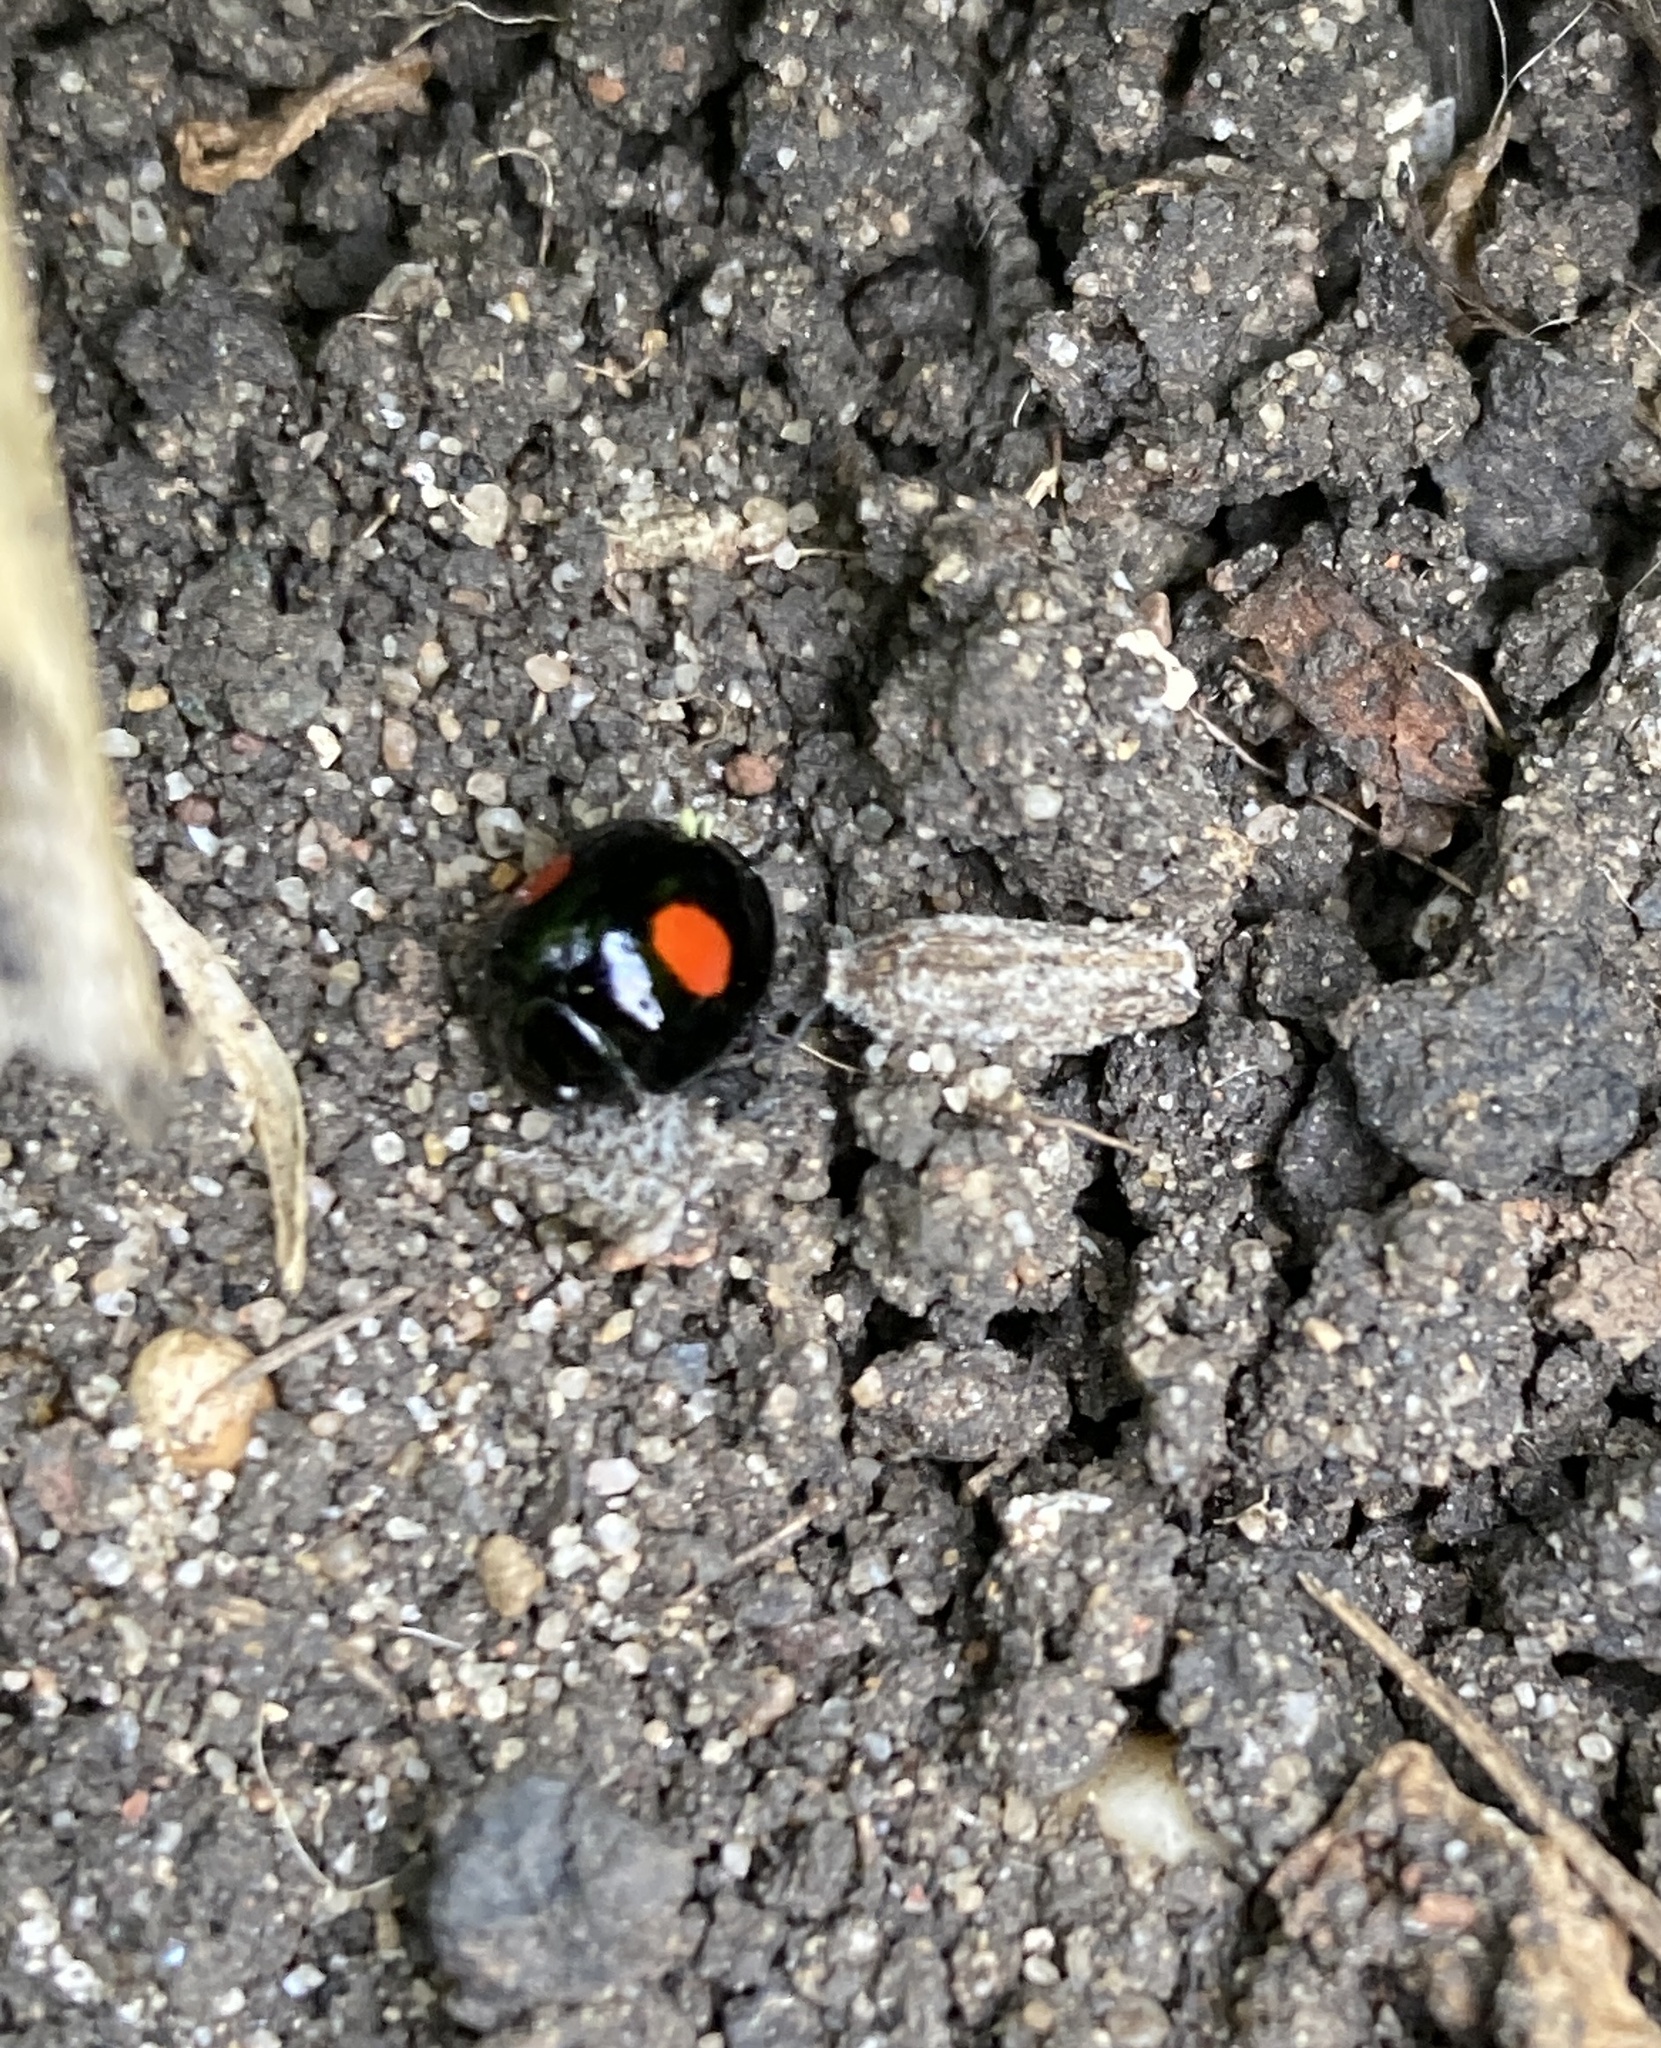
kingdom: Animalia
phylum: Arthropoda
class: Insecta
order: Coleoptera
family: Coccinellidae
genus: Chilocorus
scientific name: Chilocorus renipustulatus
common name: Kidney-spot ladybird
